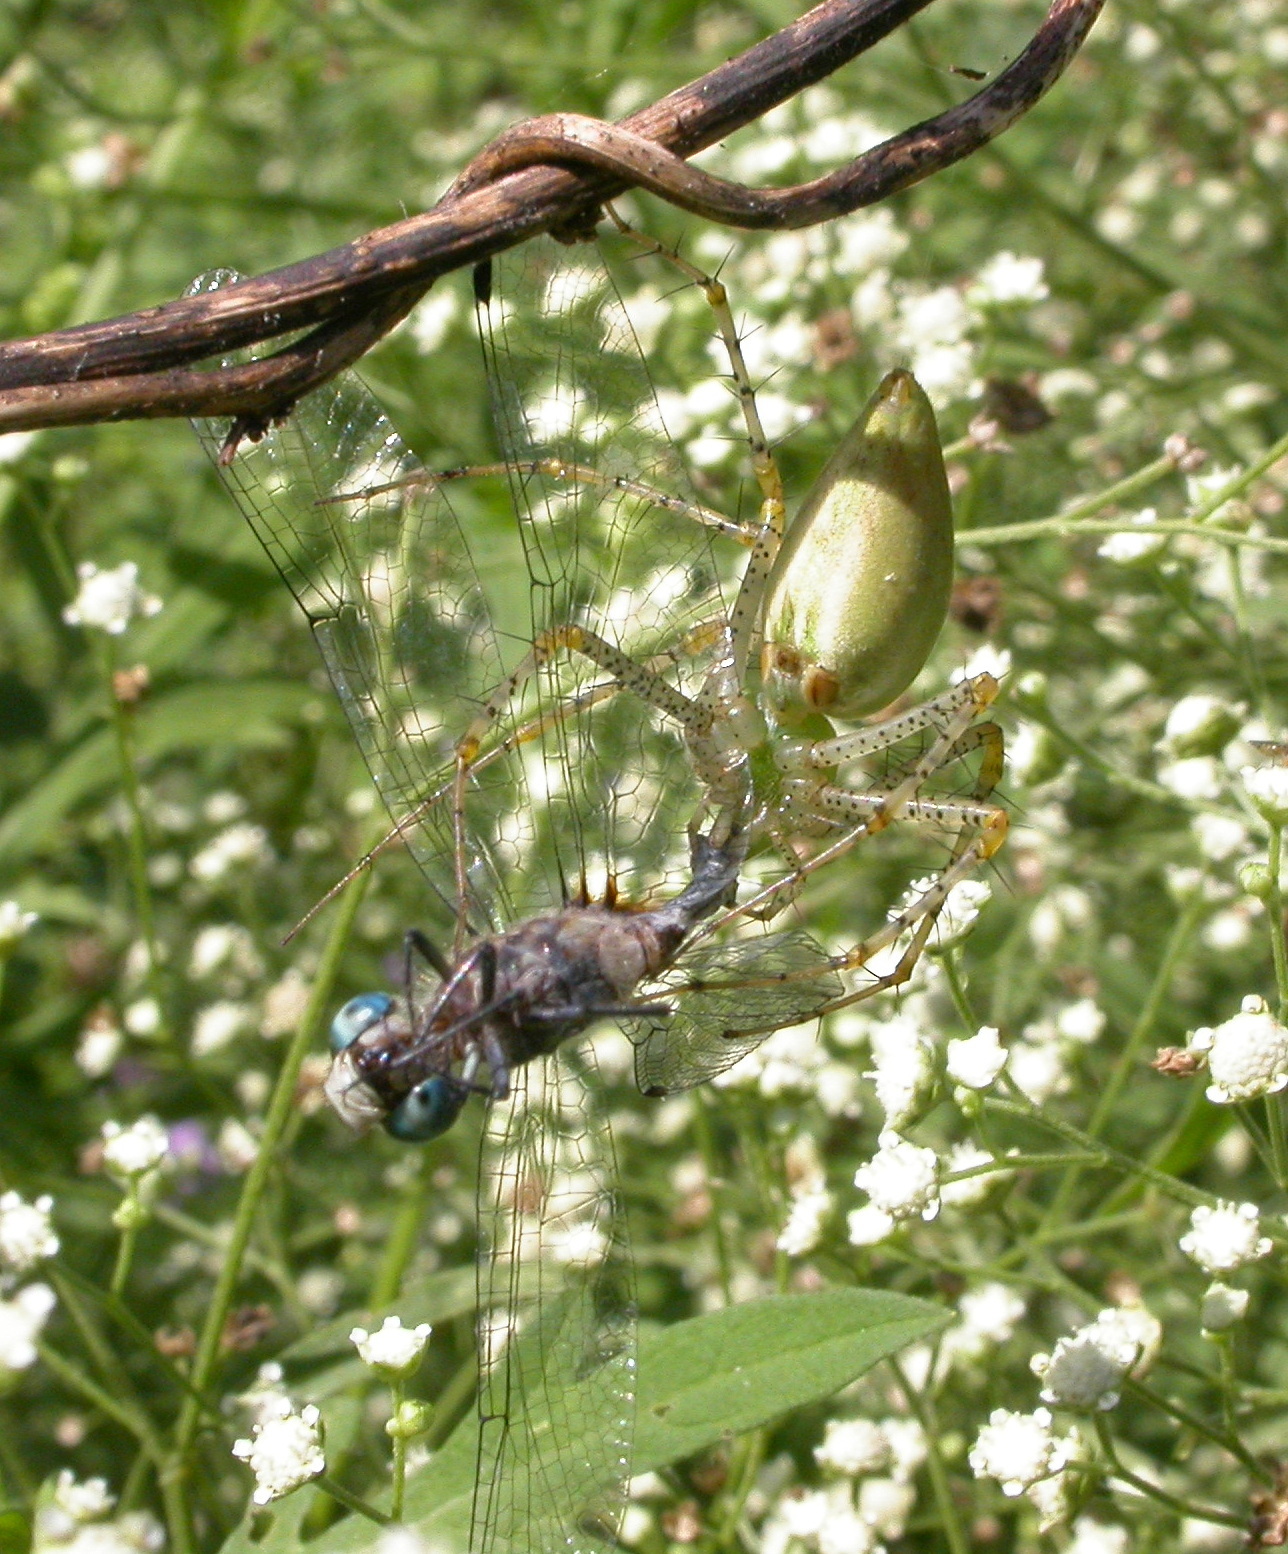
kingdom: Animalia
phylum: Arthropoda
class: Arachnida
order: Araneae
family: Oxyopidae
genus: Peucetia
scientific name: Peucetia viridans
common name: Lynx spiders
